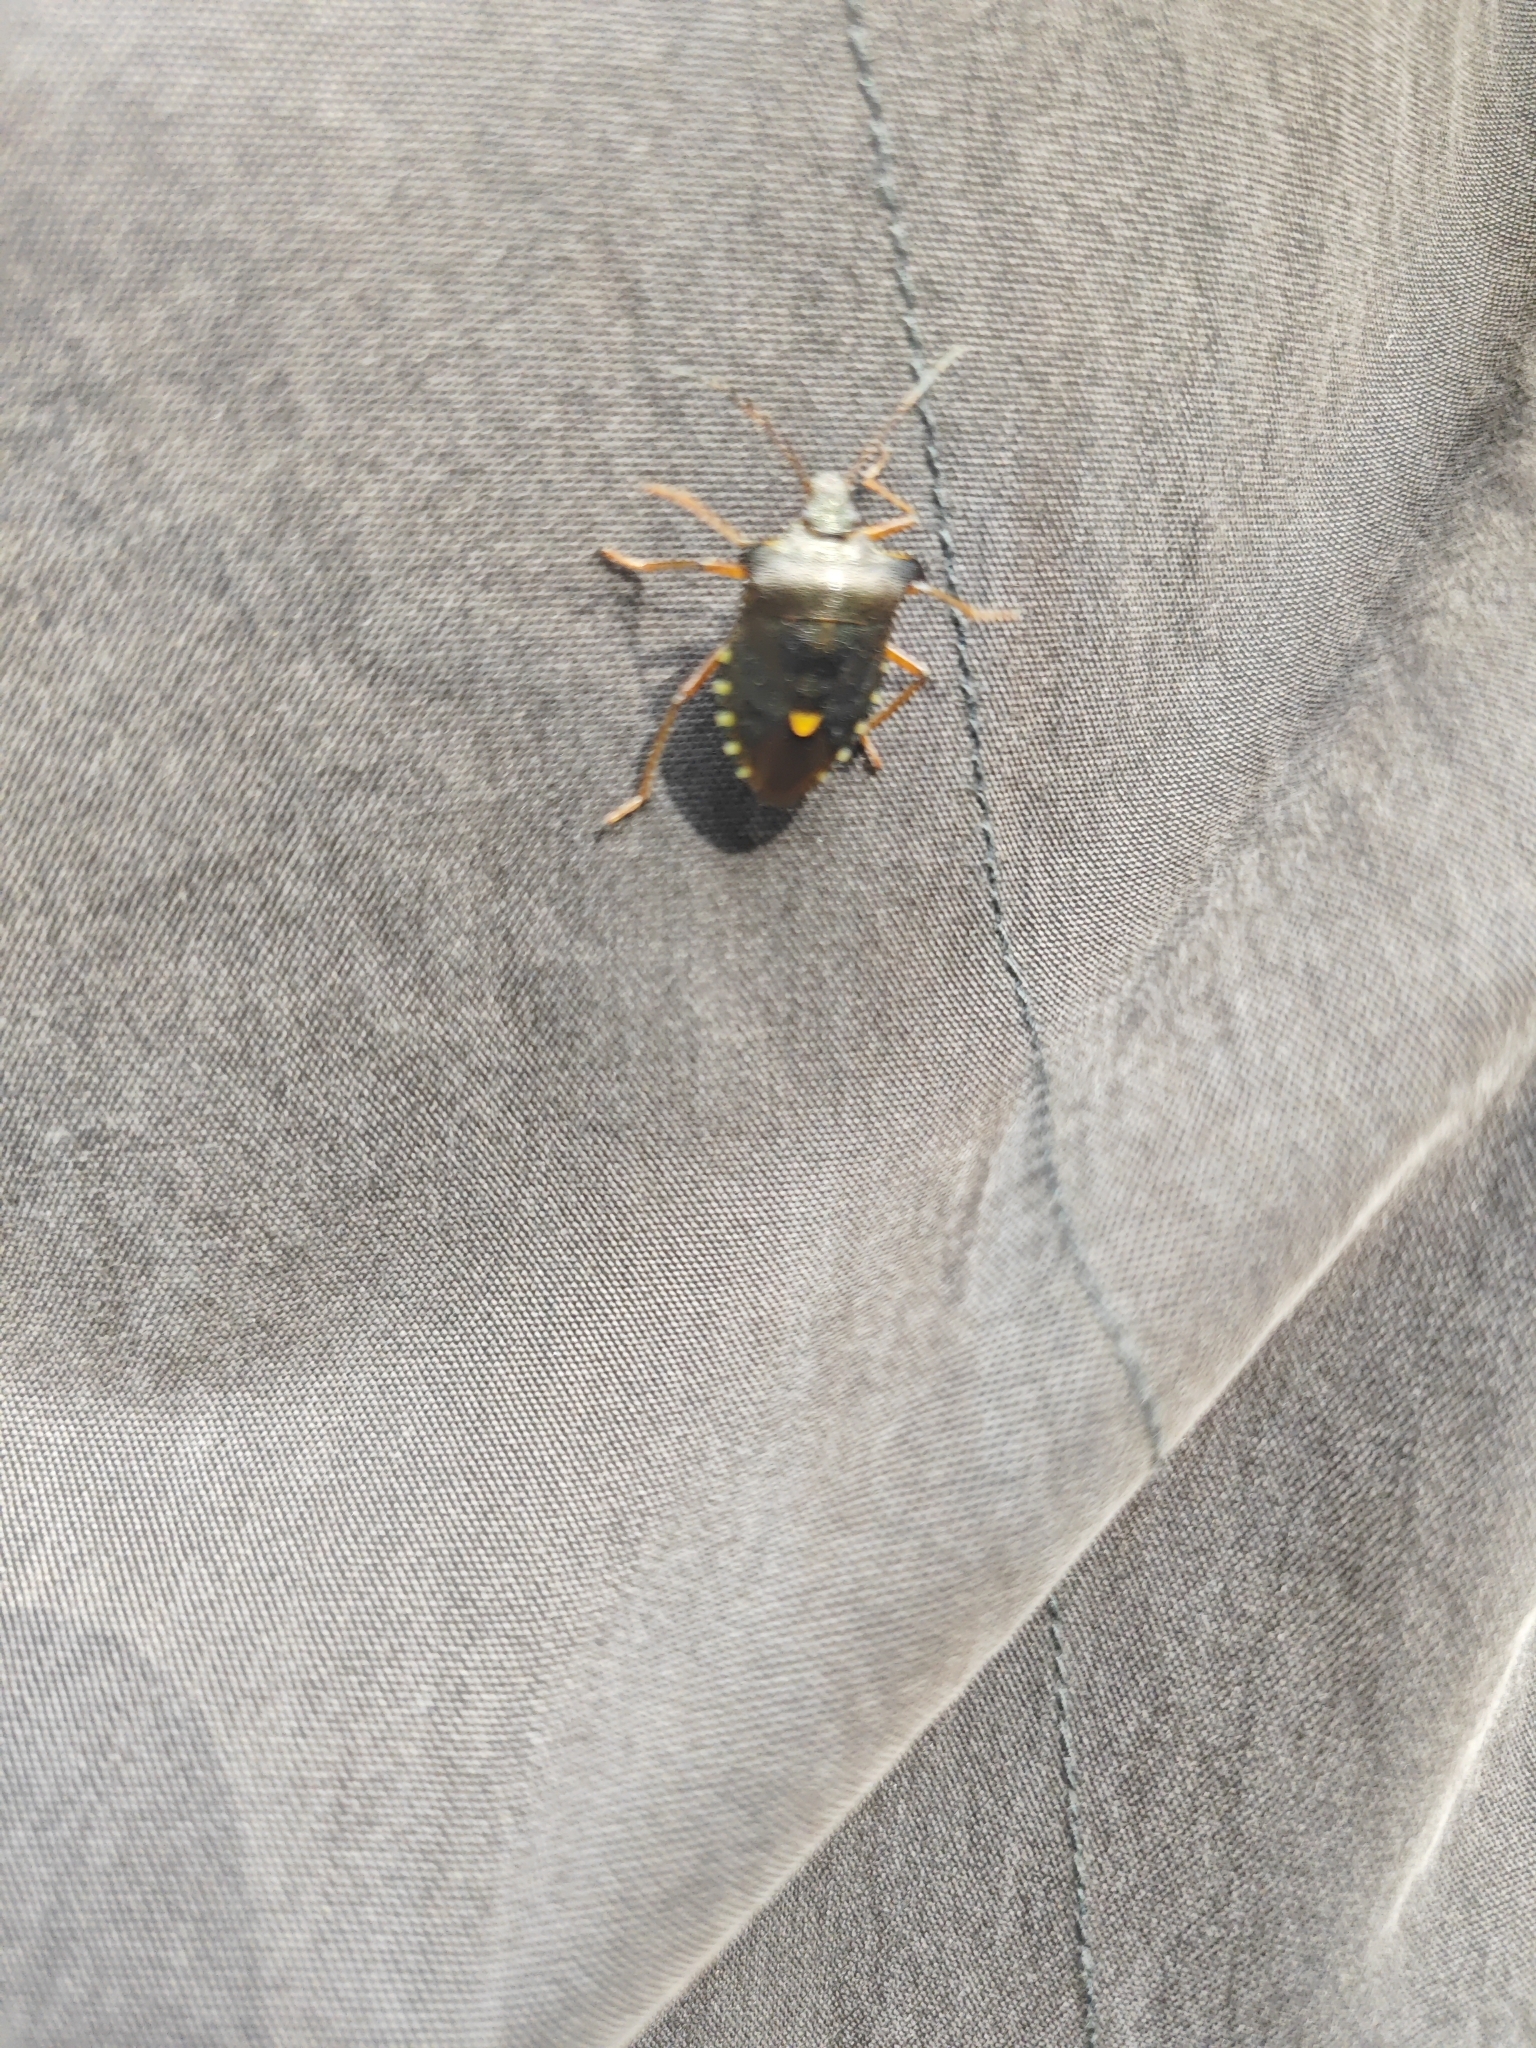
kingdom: Animalia
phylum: Arthropoda
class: Insecta
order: Hemiptera
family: Pentatomidae
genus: Pentatoma
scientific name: Pentatoma rufipes
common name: Forest bug
